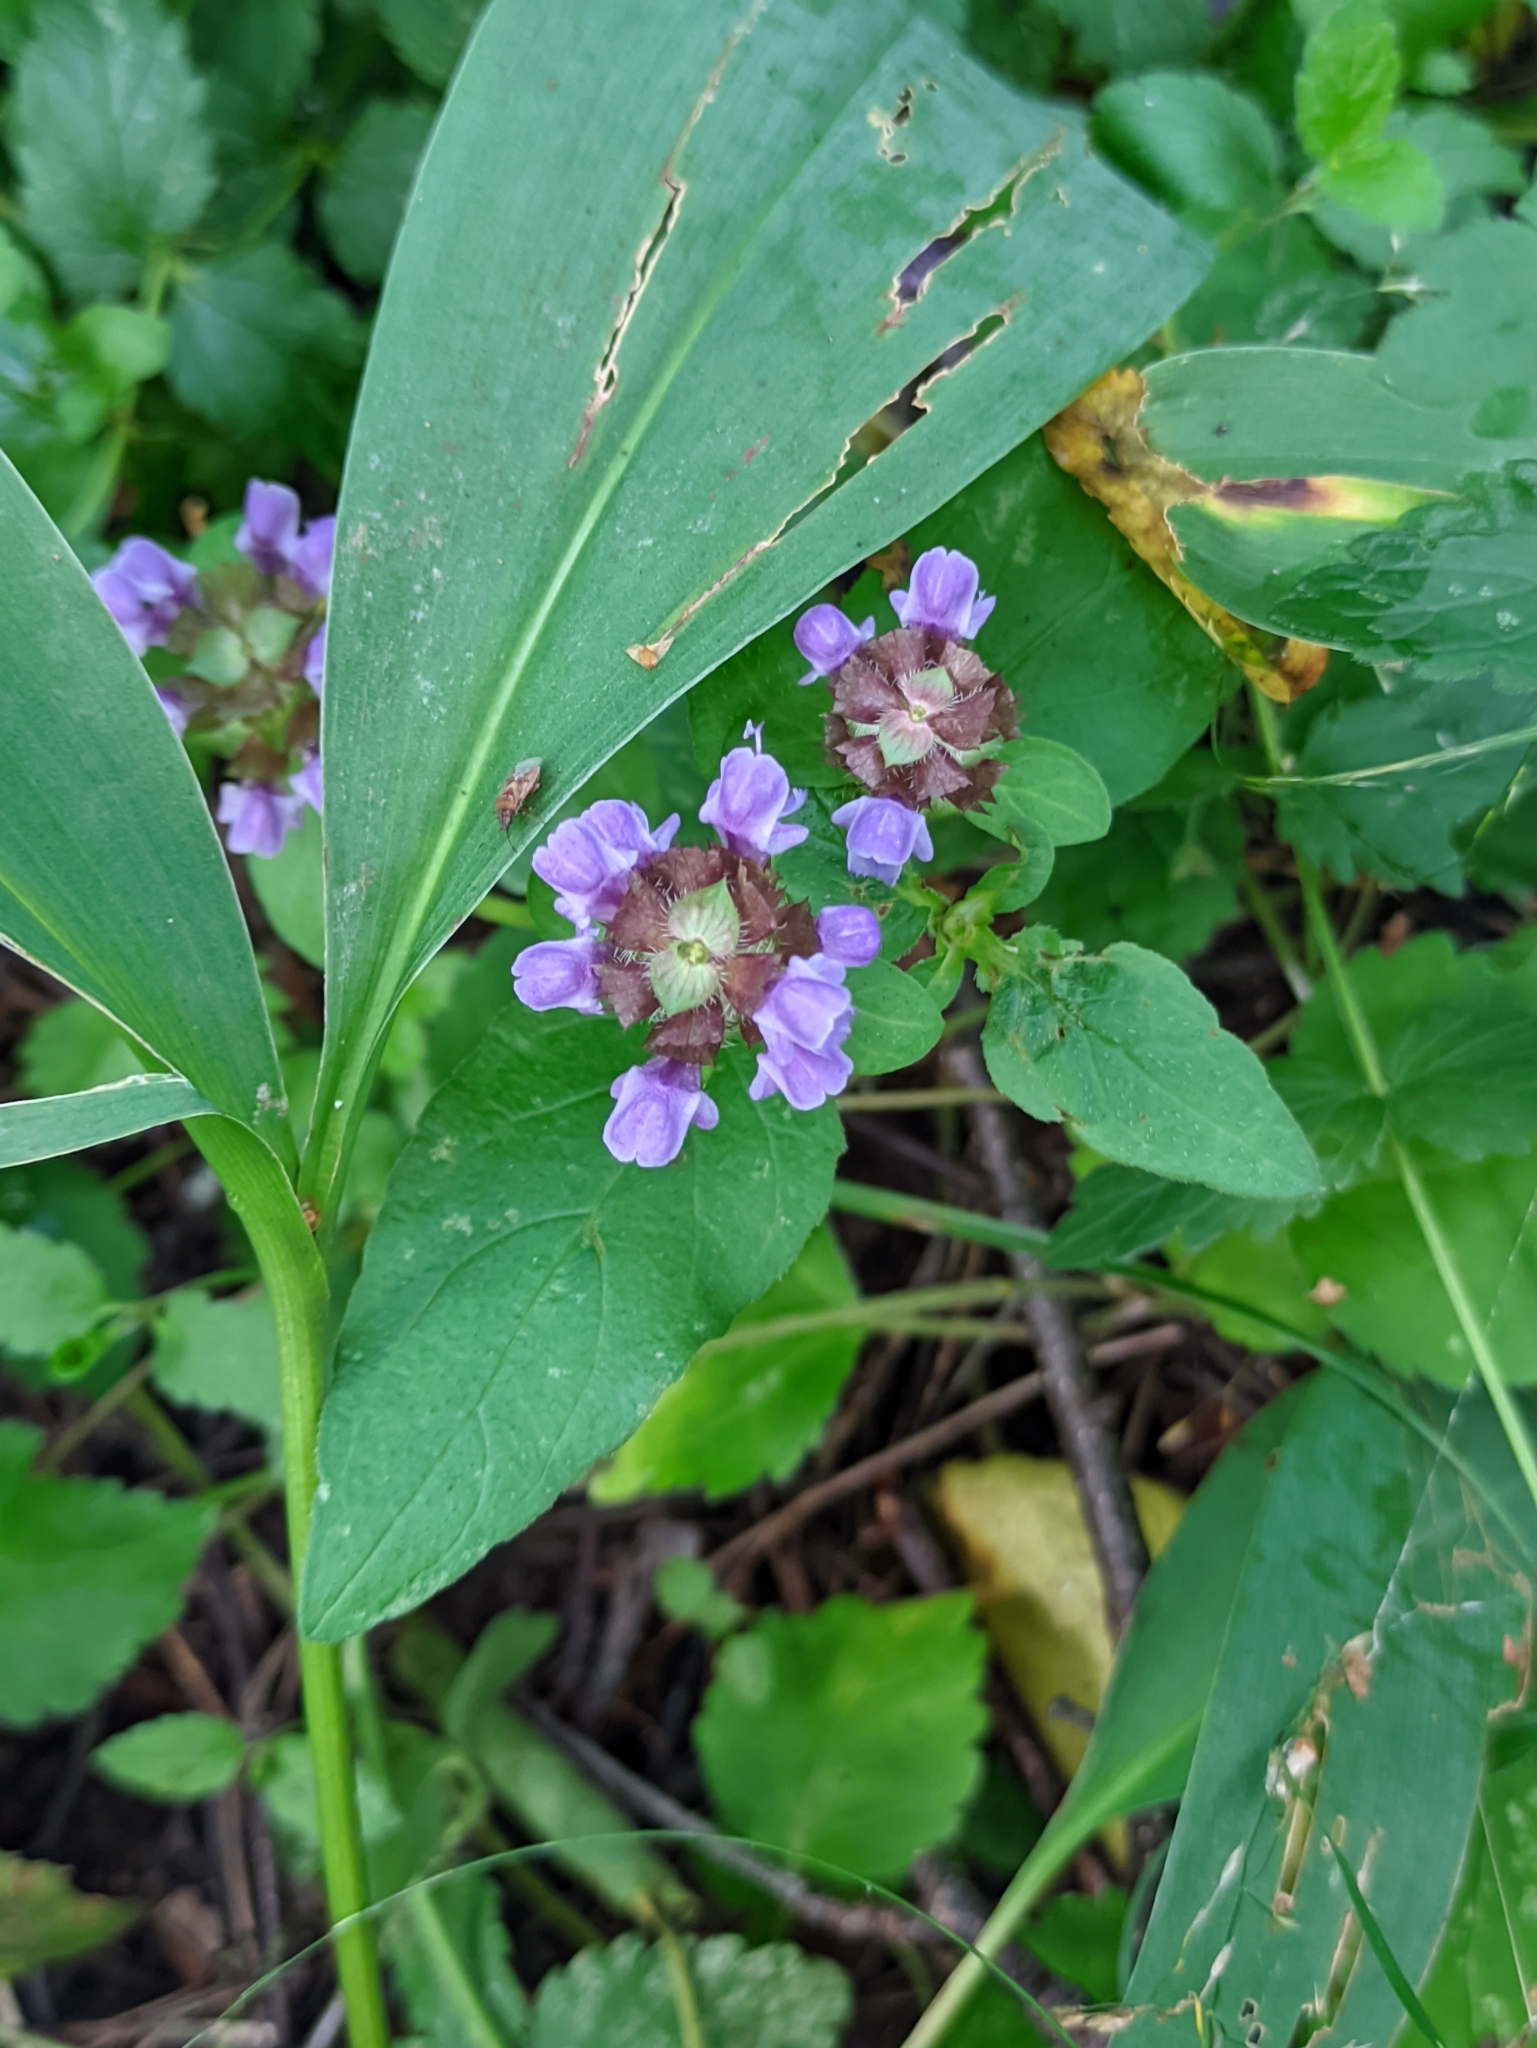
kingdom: Plantae
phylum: Tracheophyta
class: Magnoliopsida
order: Lamiales
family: Lamiaceae
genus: Prunella
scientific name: Prunella vulgaris
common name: Heal-all
